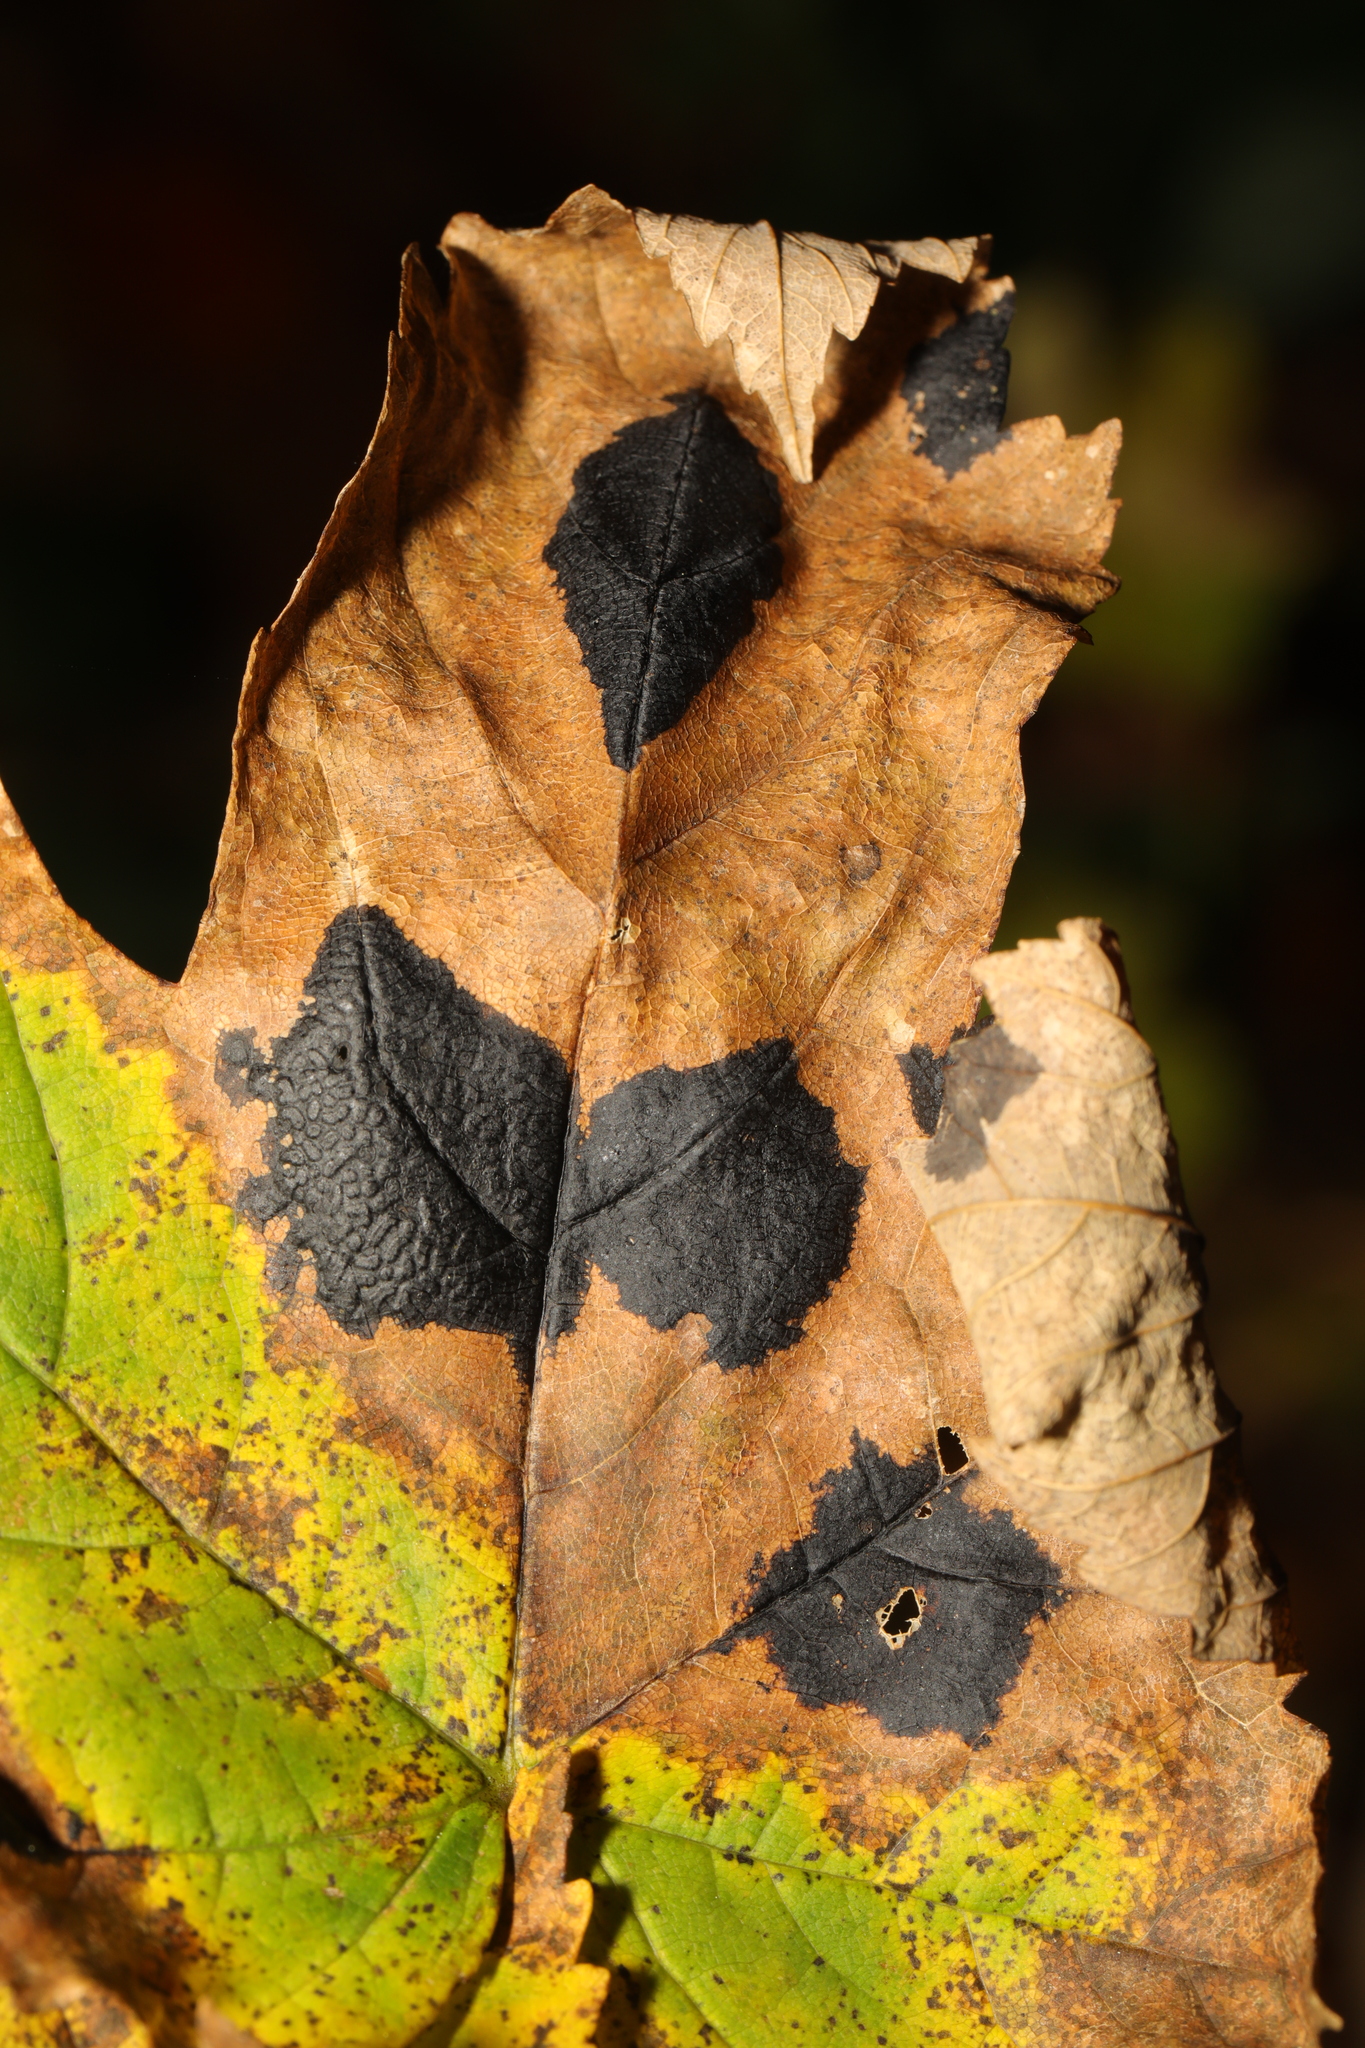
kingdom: Fungi
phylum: Ascomycota
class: Leotiomycetes
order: Rhytismatales
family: Rhytismataceae
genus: Rhytisma
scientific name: Rhytisma acerinum
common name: European tar spot
